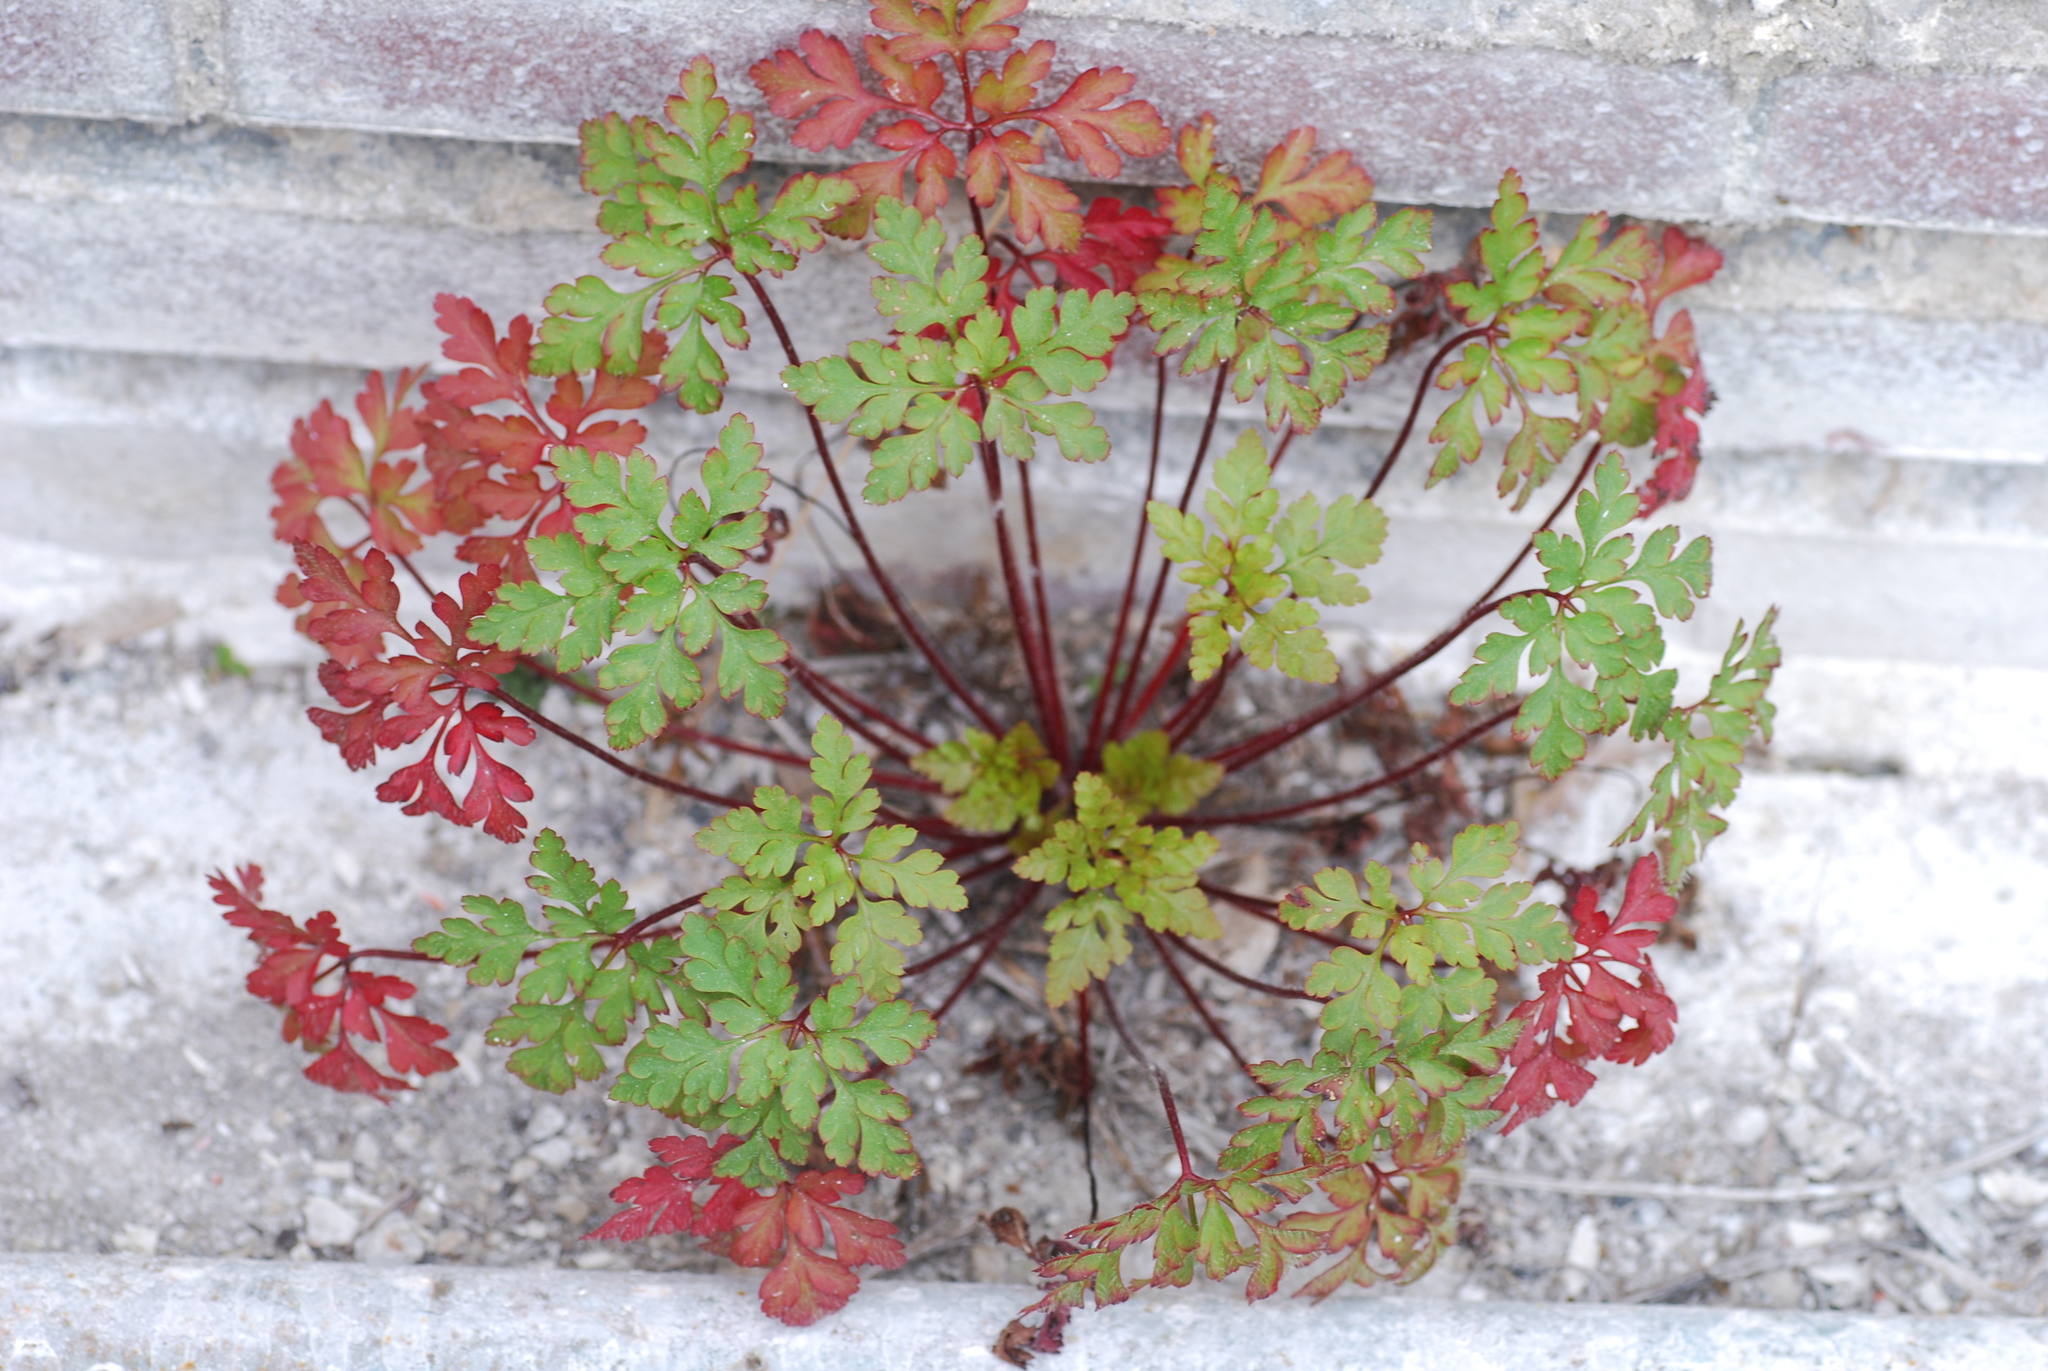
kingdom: Plantae
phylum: Tracheophyta
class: Magnoliopsida
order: Geraniales
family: Geraniaceae
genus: Geranium
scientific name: Geranium robertianum
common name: Herb-robert
